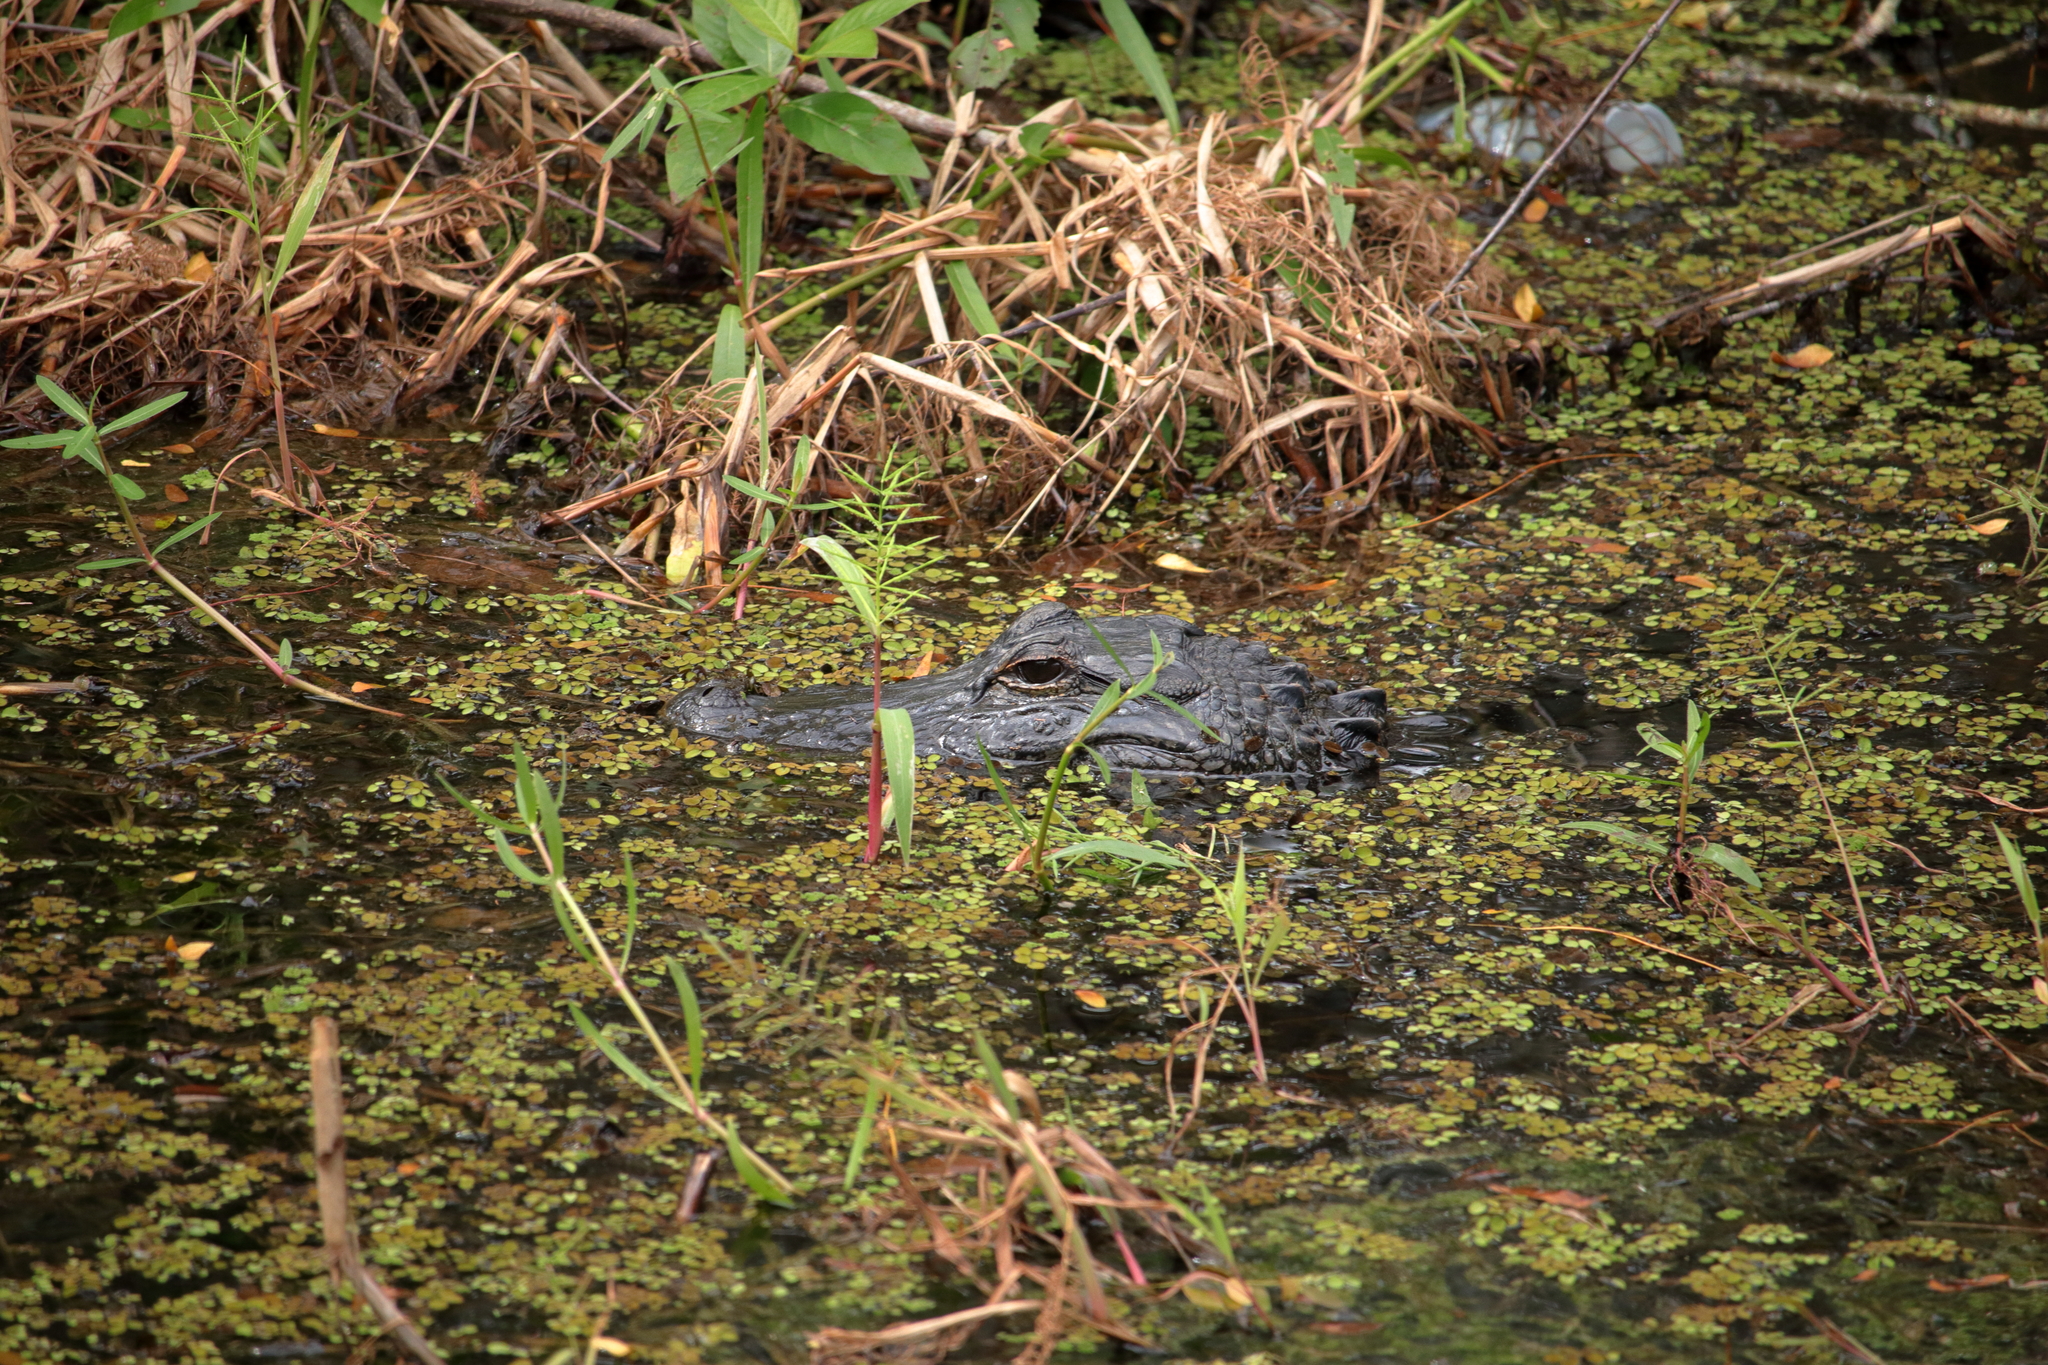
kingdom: Animalia
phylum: Chordata
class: Crocodylia
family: Alligatoridae
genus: Alligator
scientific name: Alligator mississippiensis
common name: American alligator
